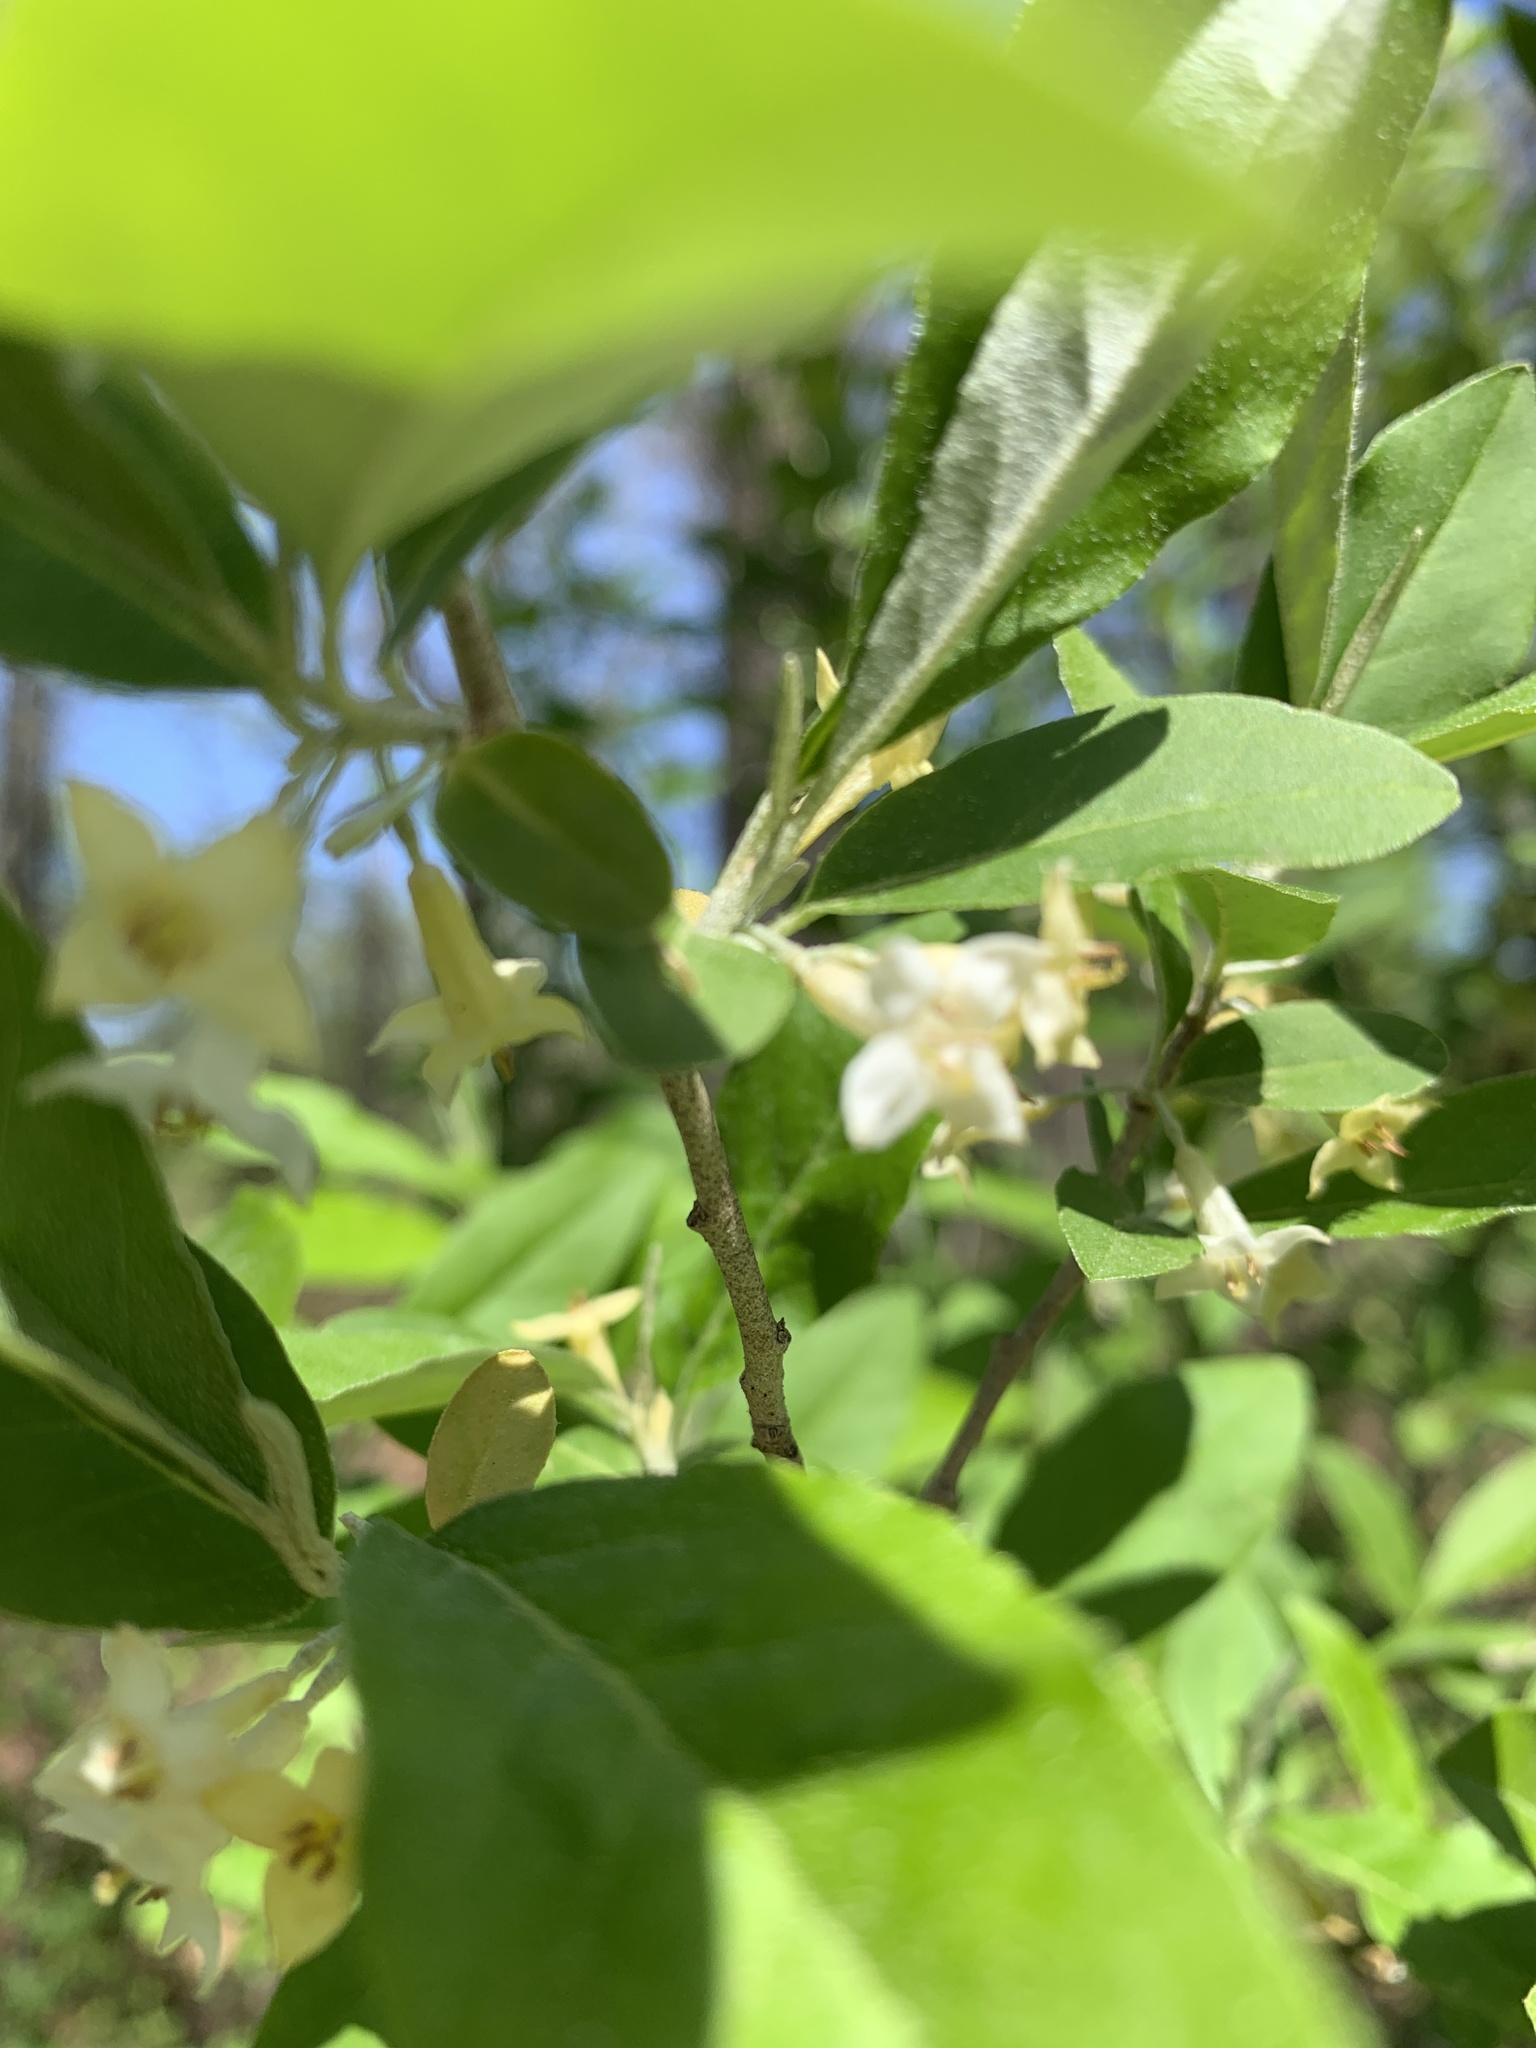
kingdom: Plantae
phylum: Tracheophyta
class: Magnoliopsida
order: Rosales
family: Elaeagnaceae
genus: Elaeagnus
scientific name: Elaeagnus umbellata
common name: Autumn olive
